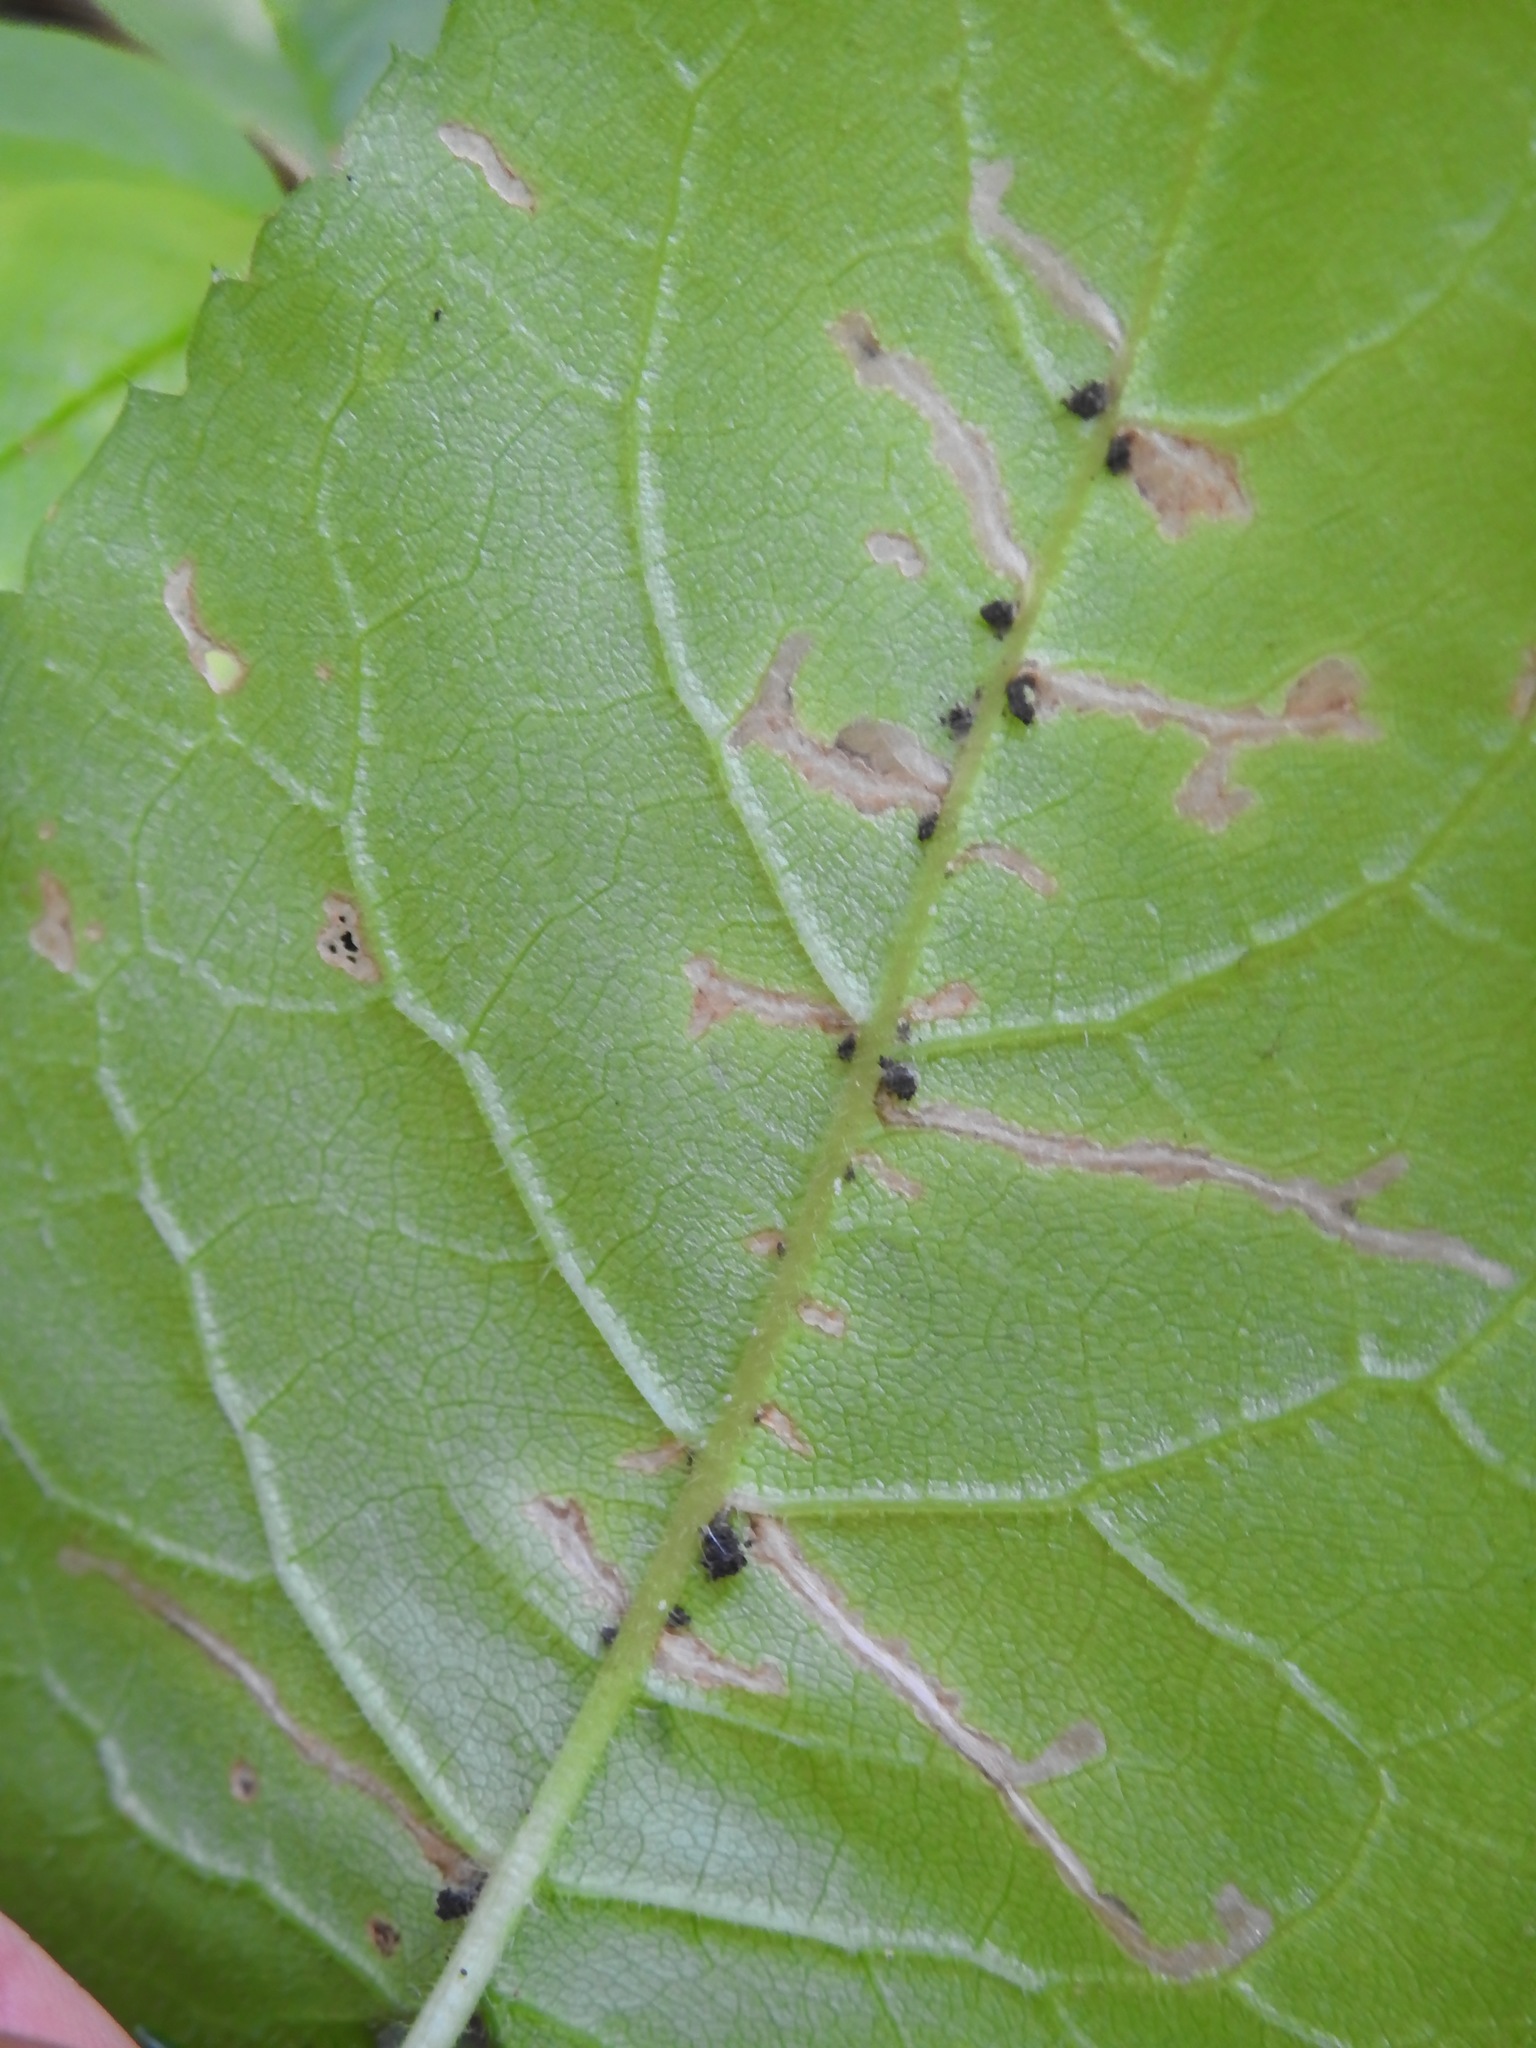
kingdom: Animalia
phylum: Arthropoda
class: Insecta
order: Lepidoptera
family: Gelechiidae
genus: Scrobipalpula
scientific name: Scrobipalpula manierreorum
